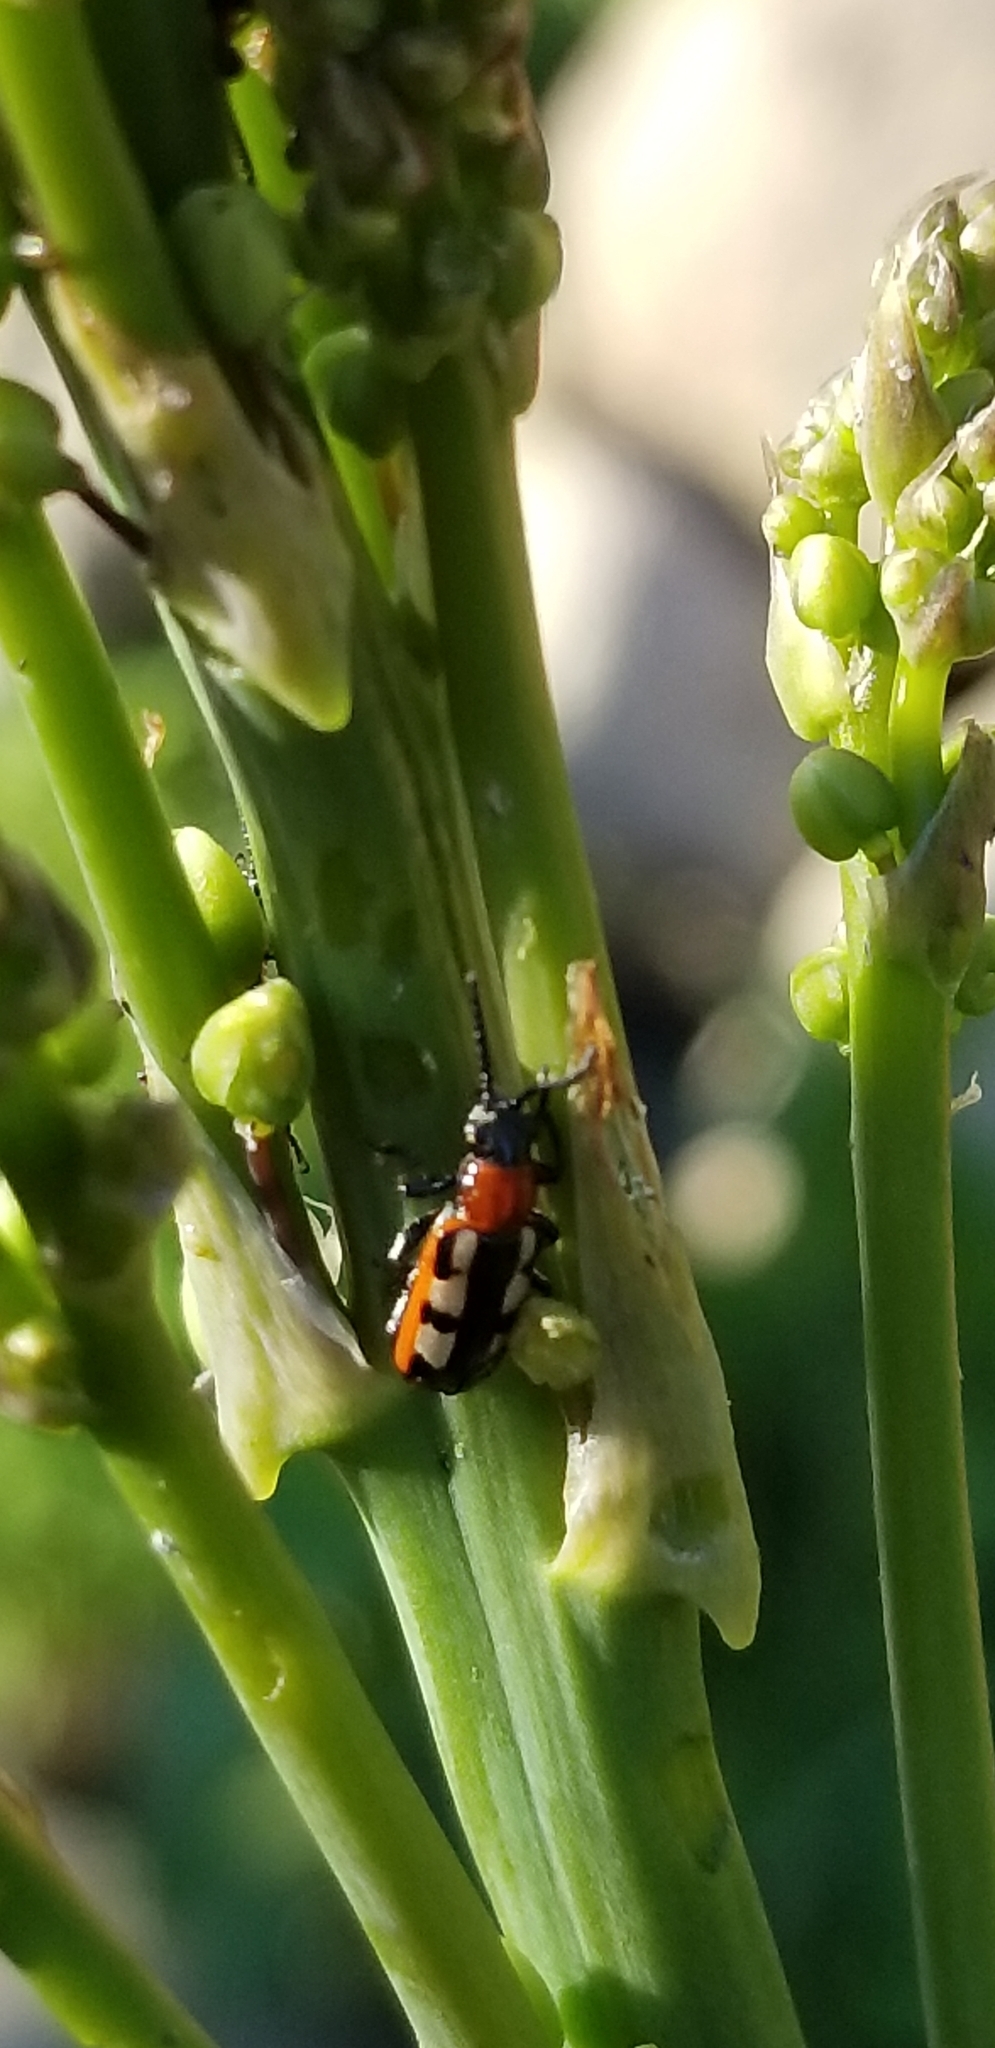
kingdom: Animalia
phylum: Arthropoda
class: Insecta
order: Coleoptera
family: Chrysomelidae
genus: Crioceris
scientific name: Crioceris asparagi
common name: Asparagus beetle
